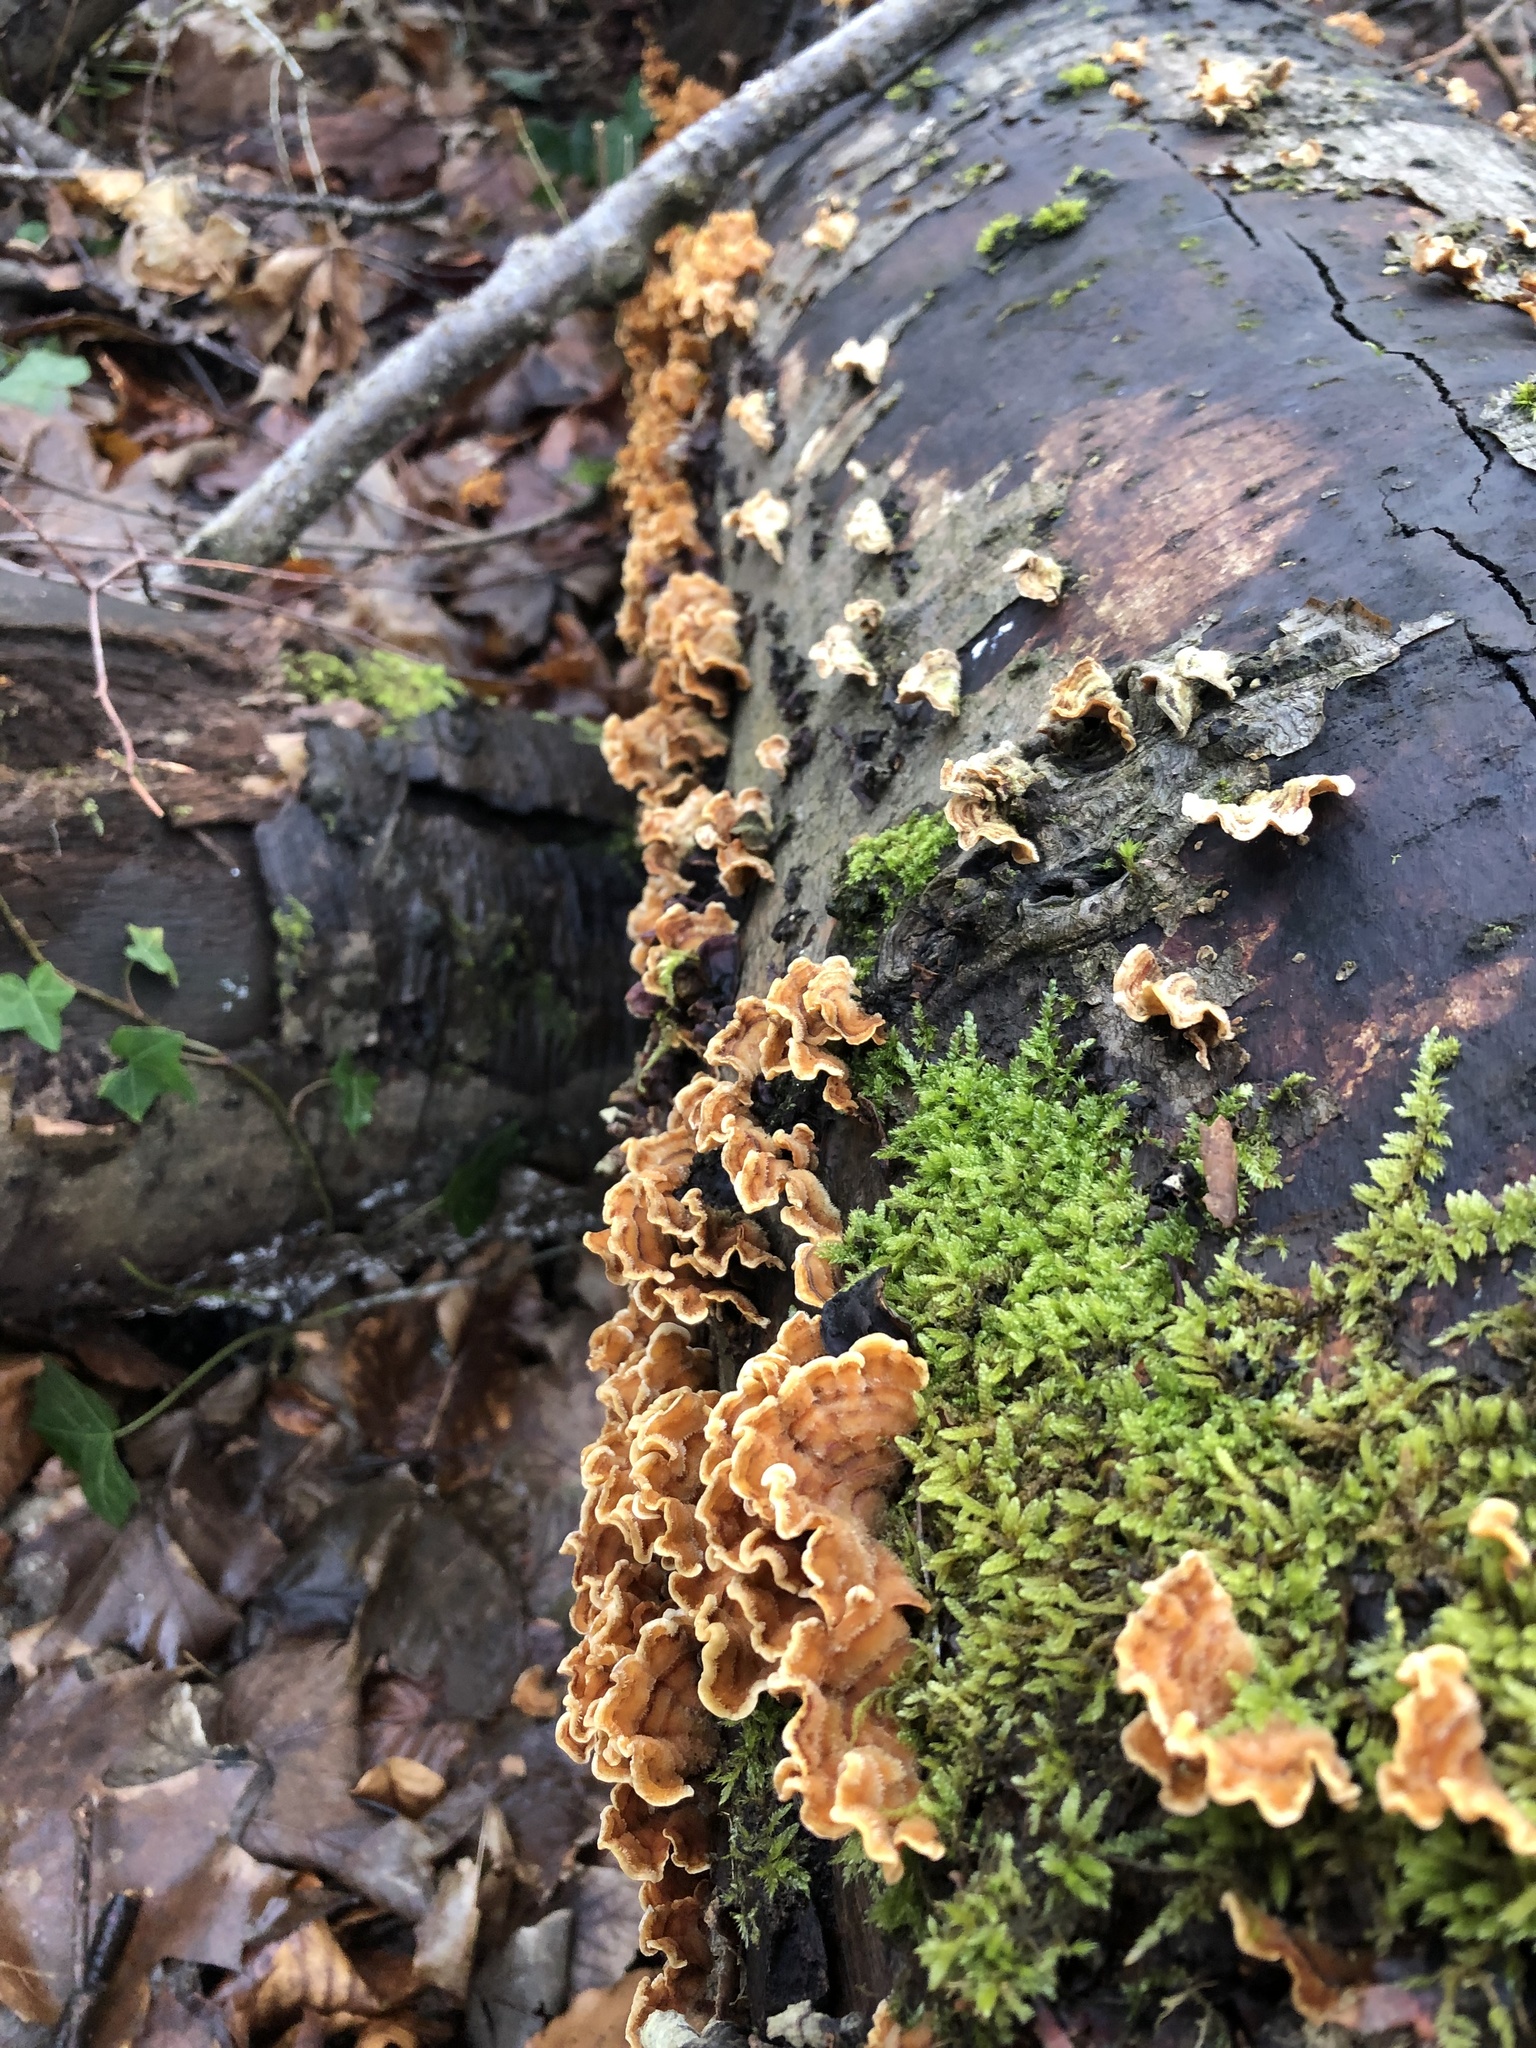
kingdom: Fungi
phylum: Basidiomycota
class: Agaricomycetes
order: Russulales
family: Stereaceae
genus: Stereum
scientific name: Stereum hirsutum
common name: Hairy curtain crust
